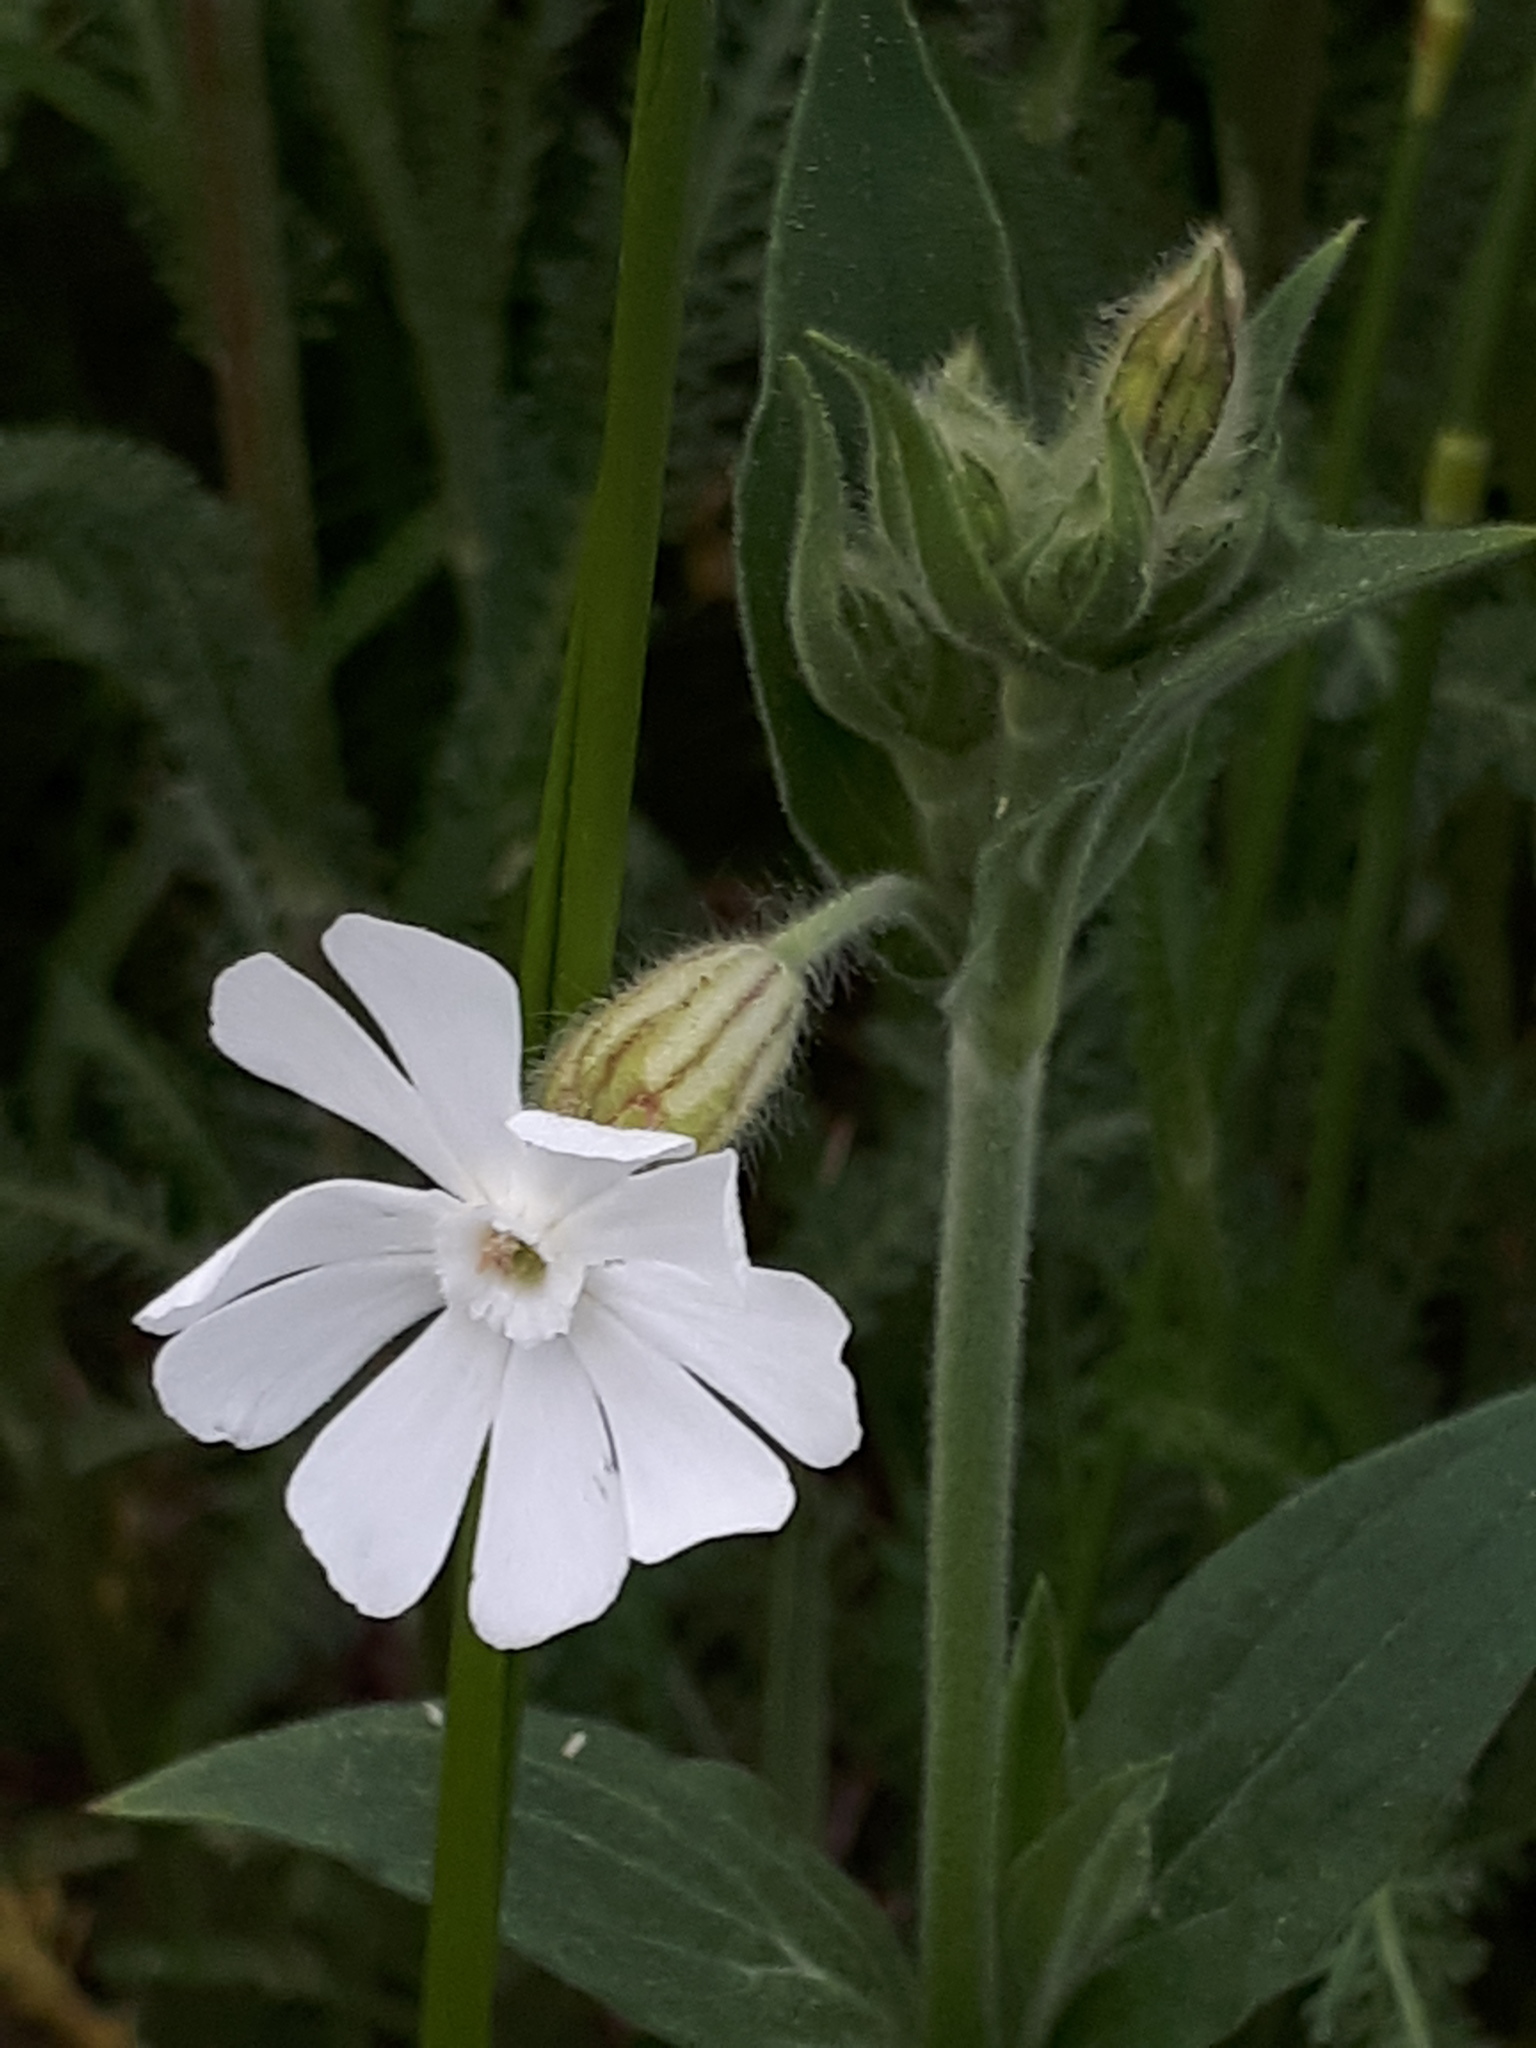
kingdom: Plantae
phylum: Tracheophyta
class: Magnoliopsida
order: Caryophyllales
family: Caryophyllaceae
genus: Silene
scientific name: Silene latifolia
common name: White campion
